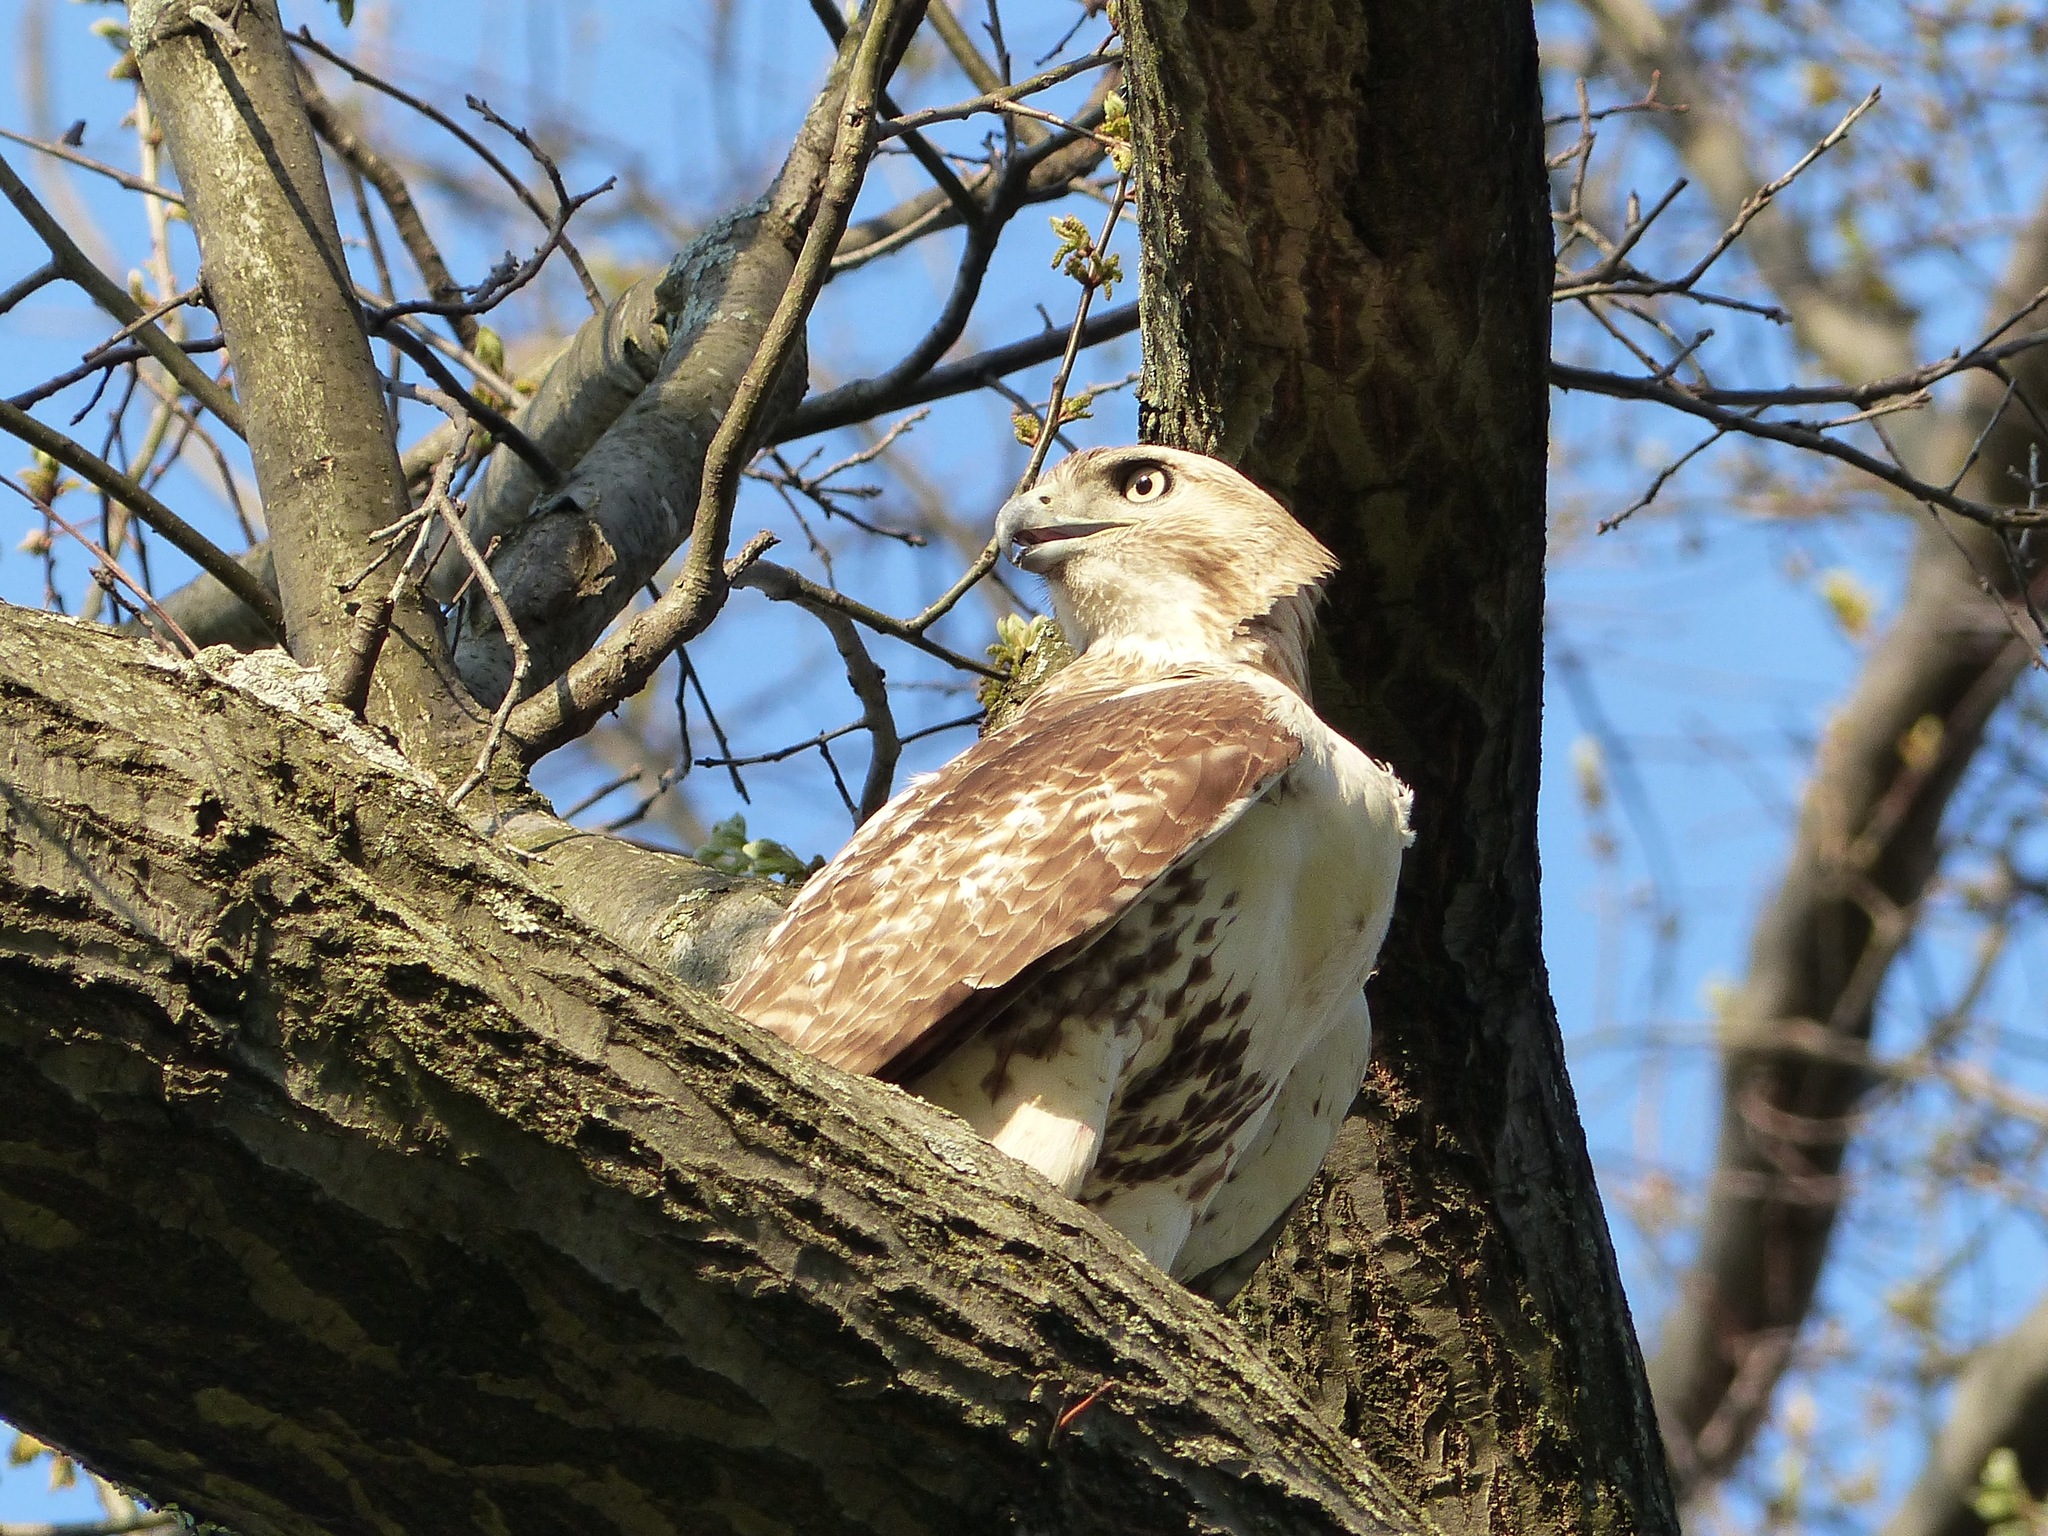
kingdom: Animalia
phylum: Chordata
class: Aves
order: Accipitriformes
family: Accipitridae
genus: Buteo
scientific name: Buteo jamaicensis
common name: Red-tailed hawk
